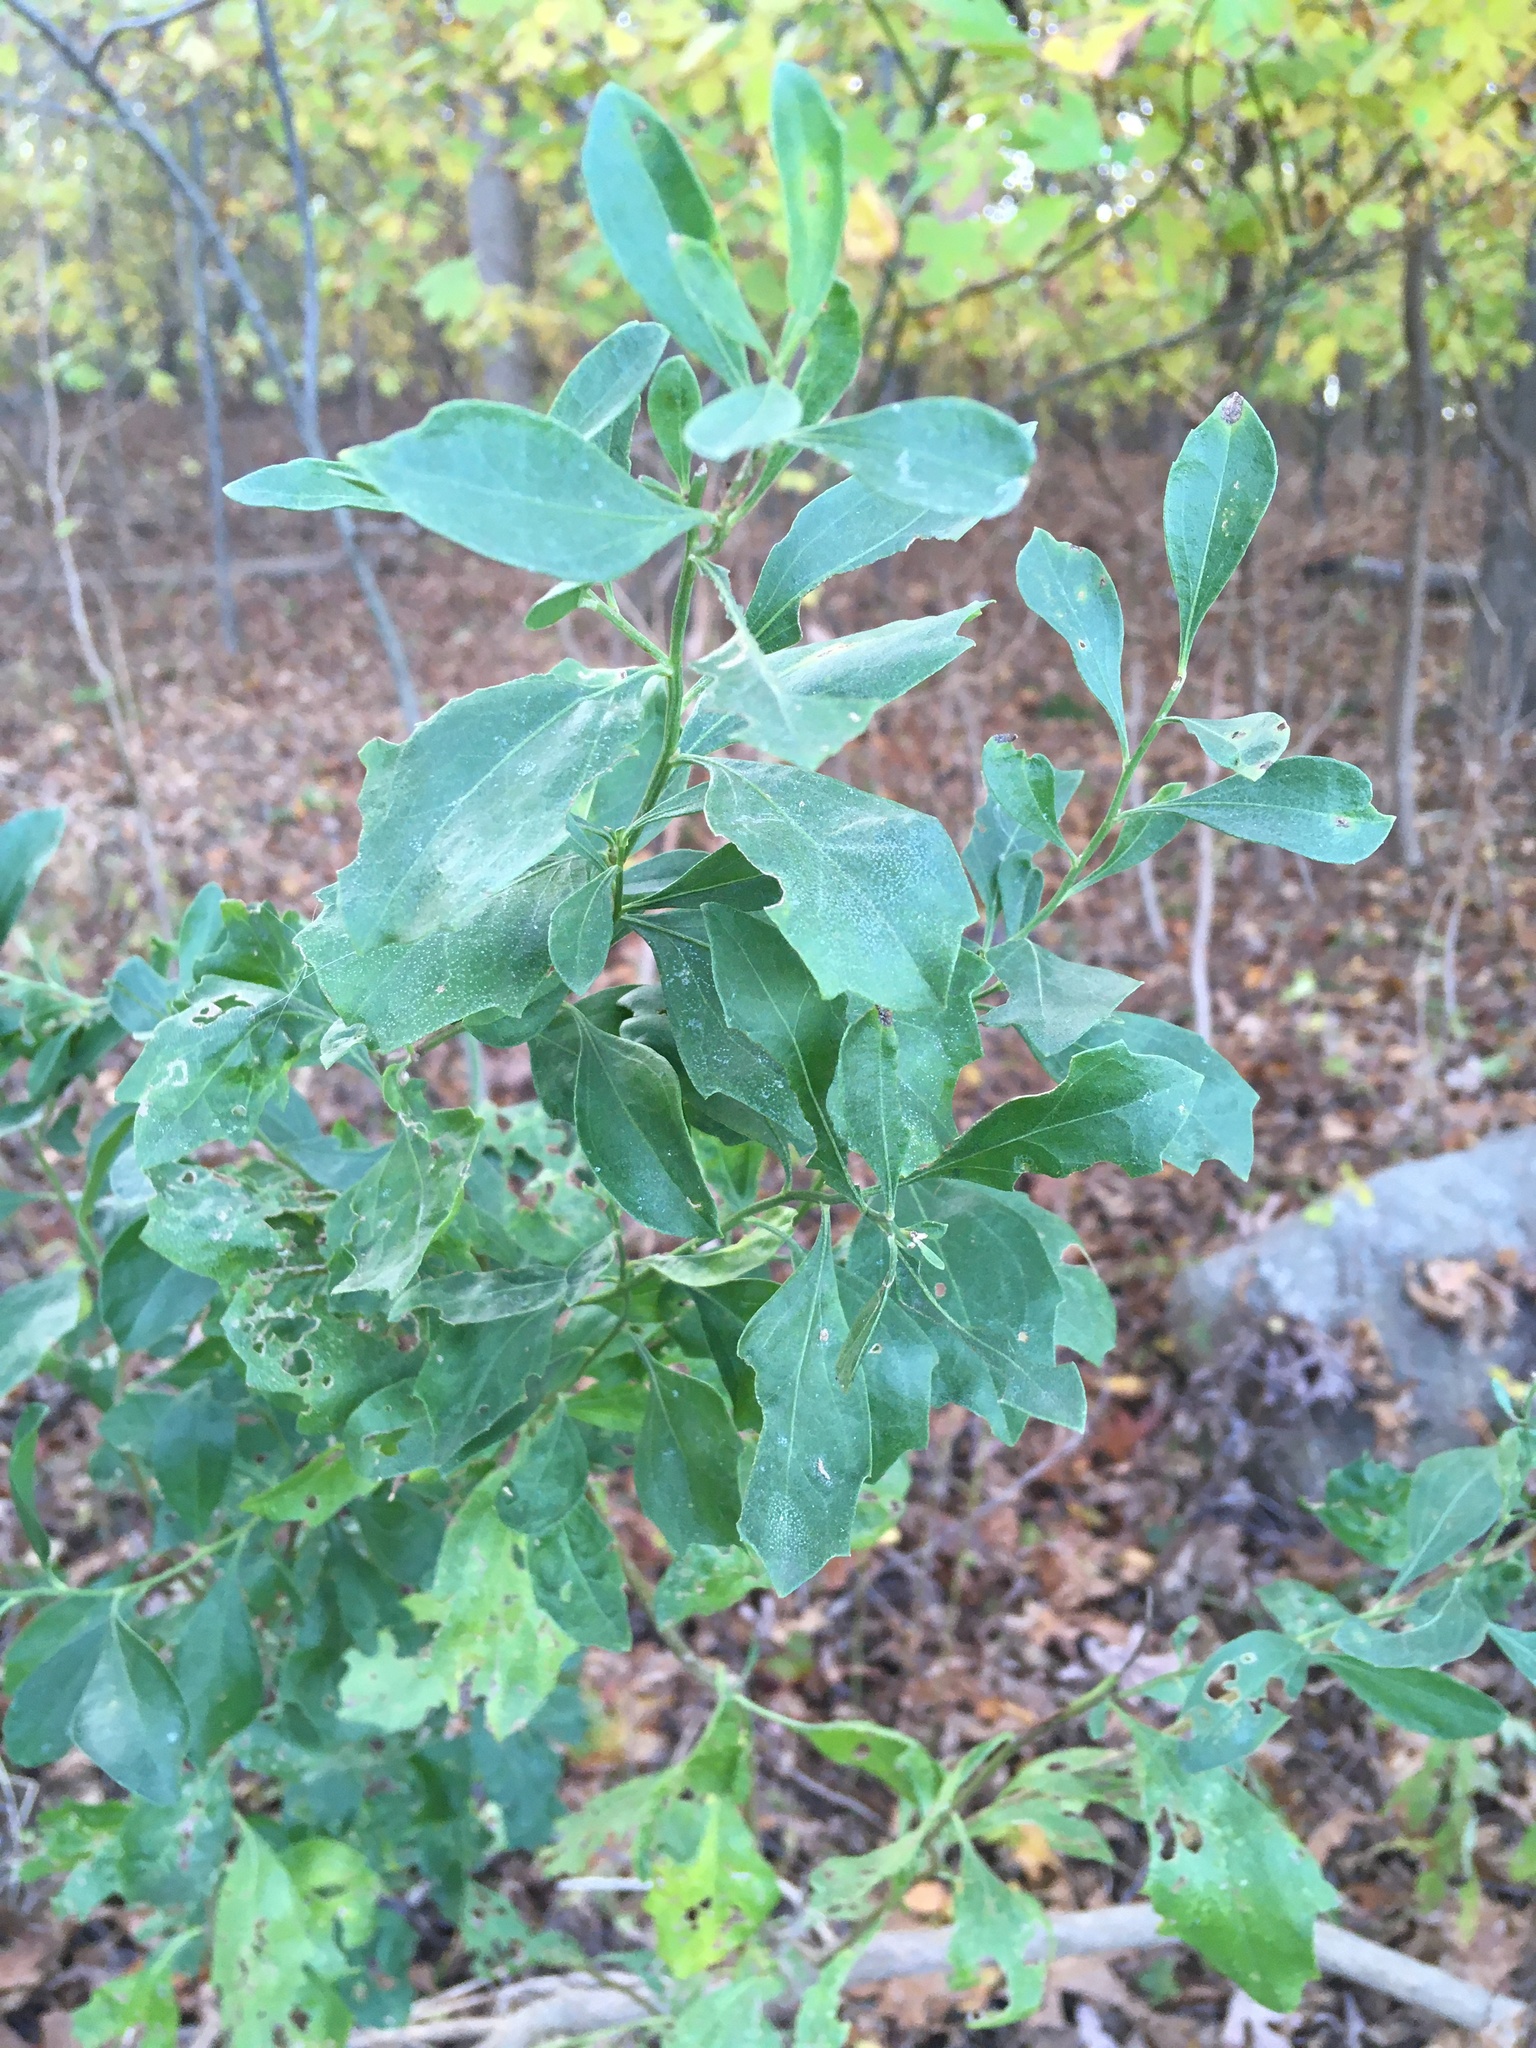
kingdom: Plantae
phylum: Tracheophyta
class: Magnoliopsida
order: Asterales
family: Asteraceae
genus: Baccharis
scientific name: Baccharis halimifolia
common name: Eastern baccharis
